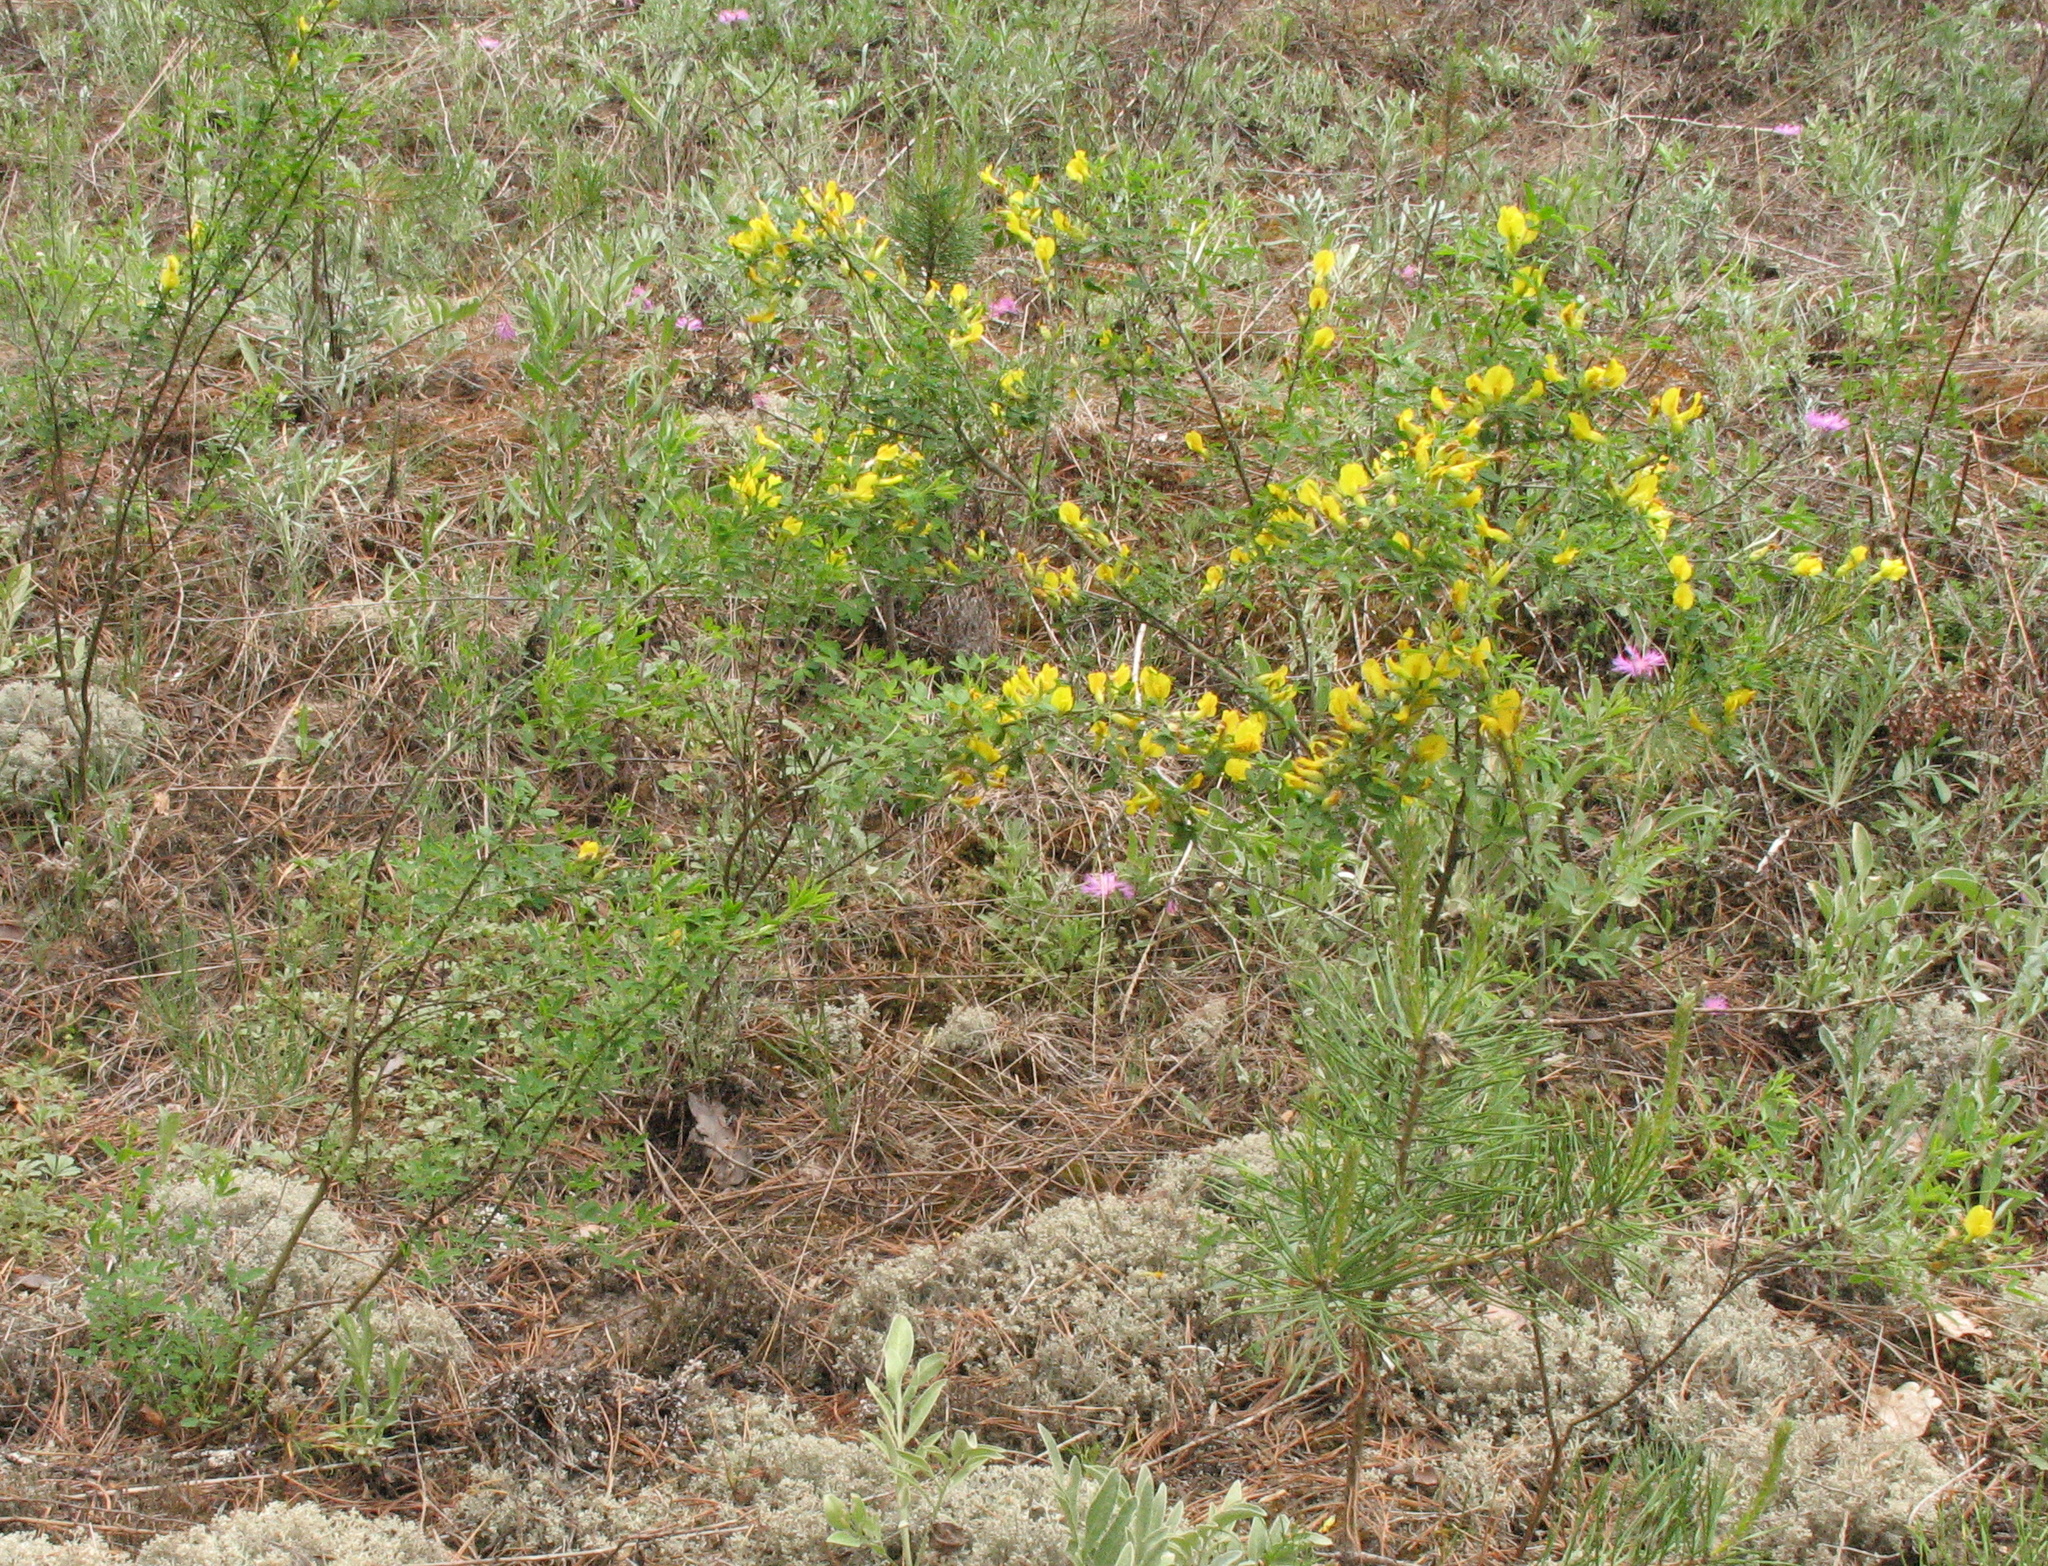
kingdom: Plantae
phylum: Tracheophyta
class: Magnoliopsida
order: Fabales
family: Fabaceae
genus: Chamaecytisus
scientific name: Chamaecytisus ruthenicus
